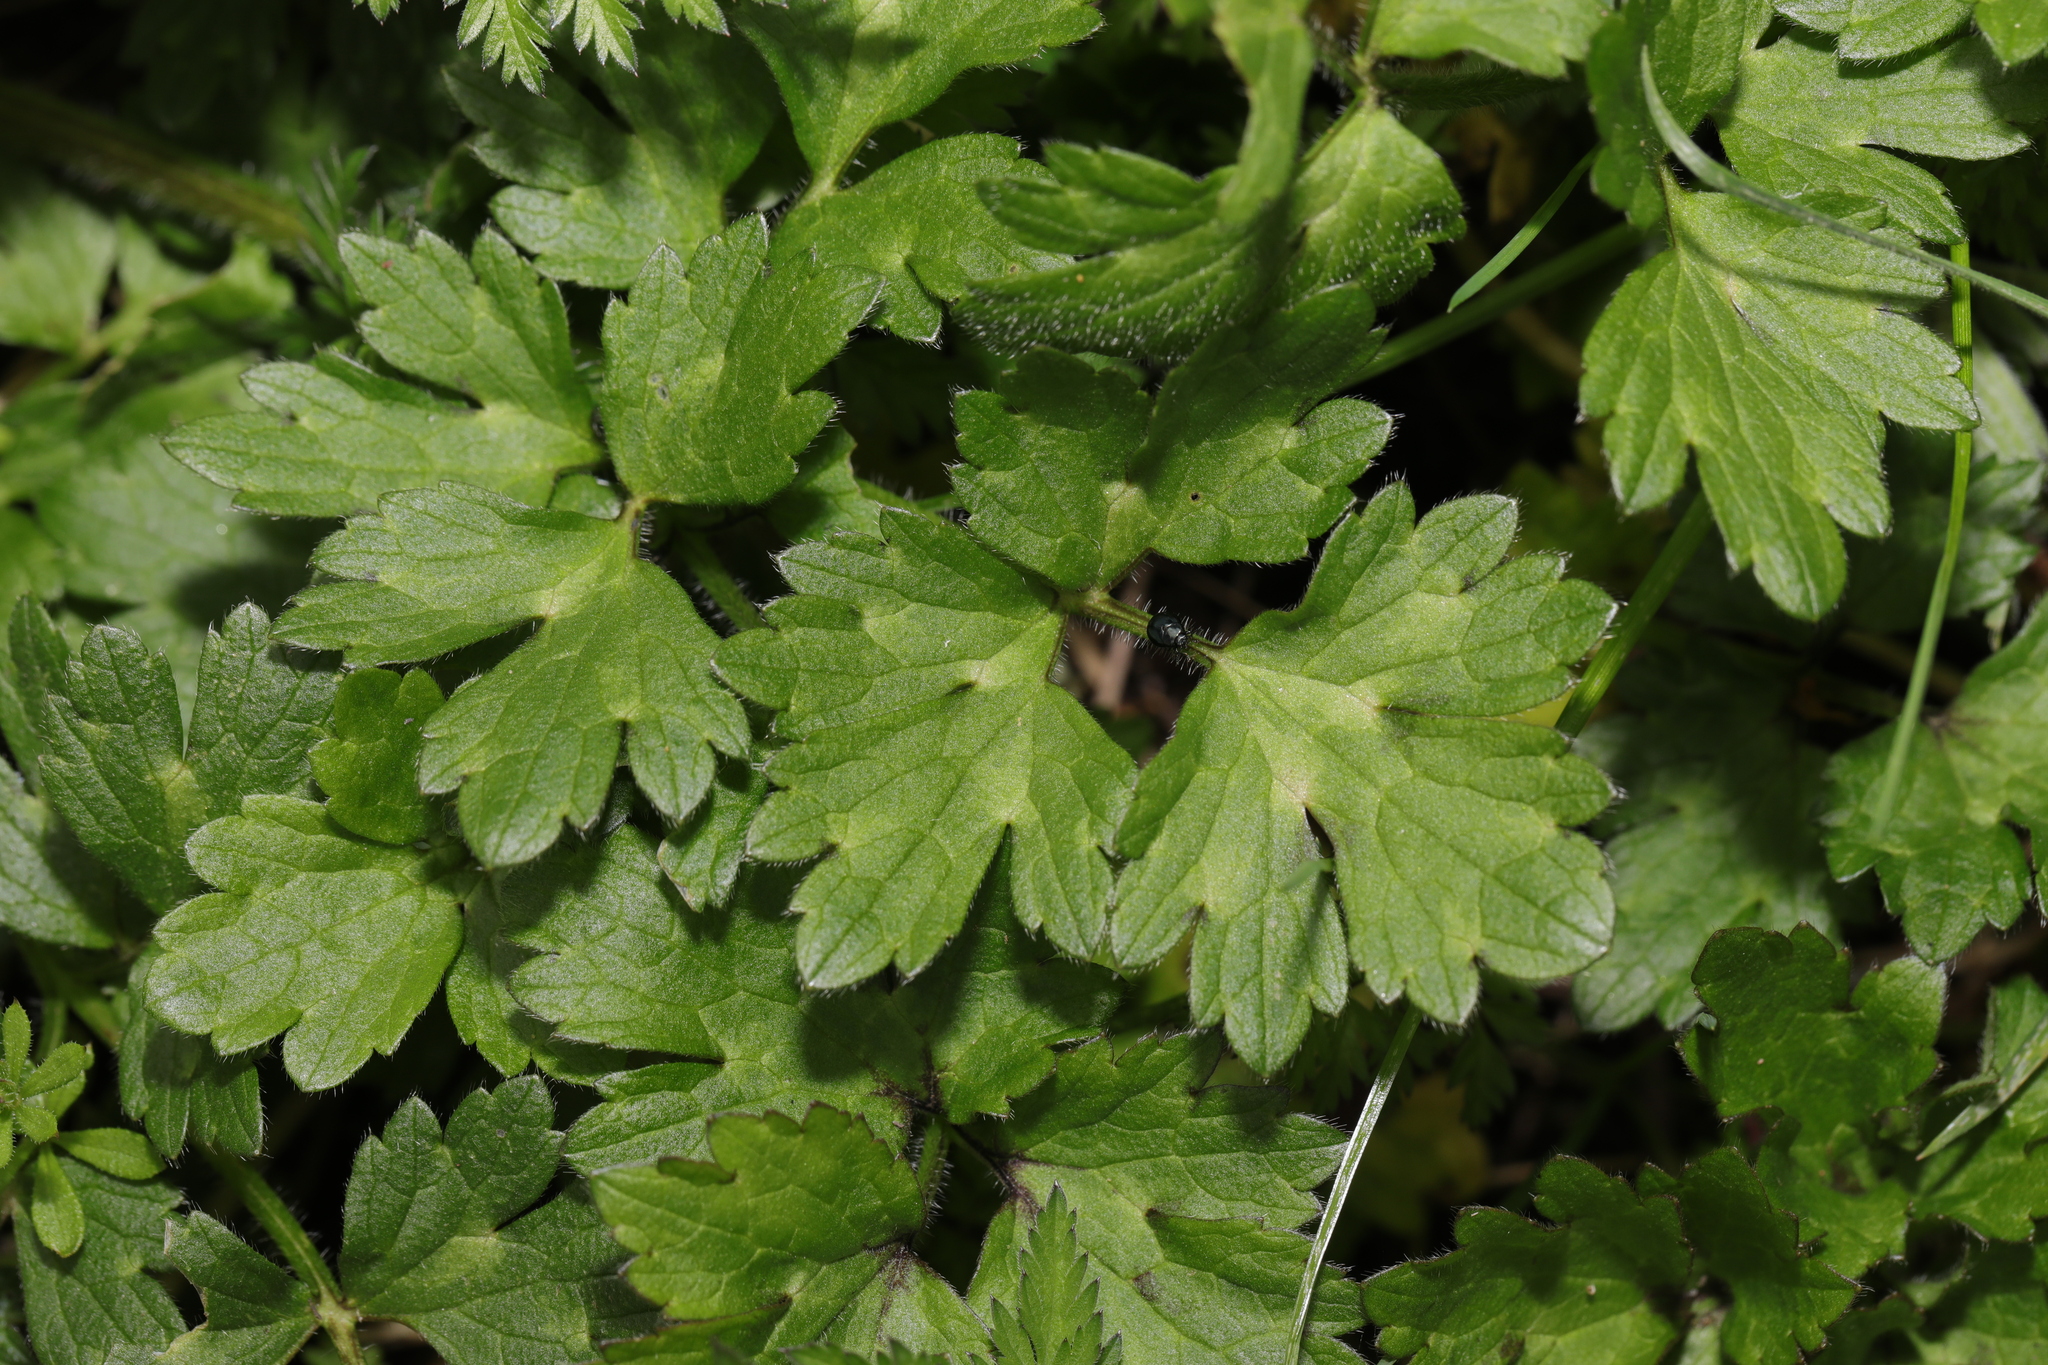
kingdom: Plantae
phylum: Tracheophyta
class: Magnoliopsida
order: Ranunculales
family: Ranunculaceae
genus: Ranunculus
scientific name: Ranunculus repens
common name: Creeping buttercup
